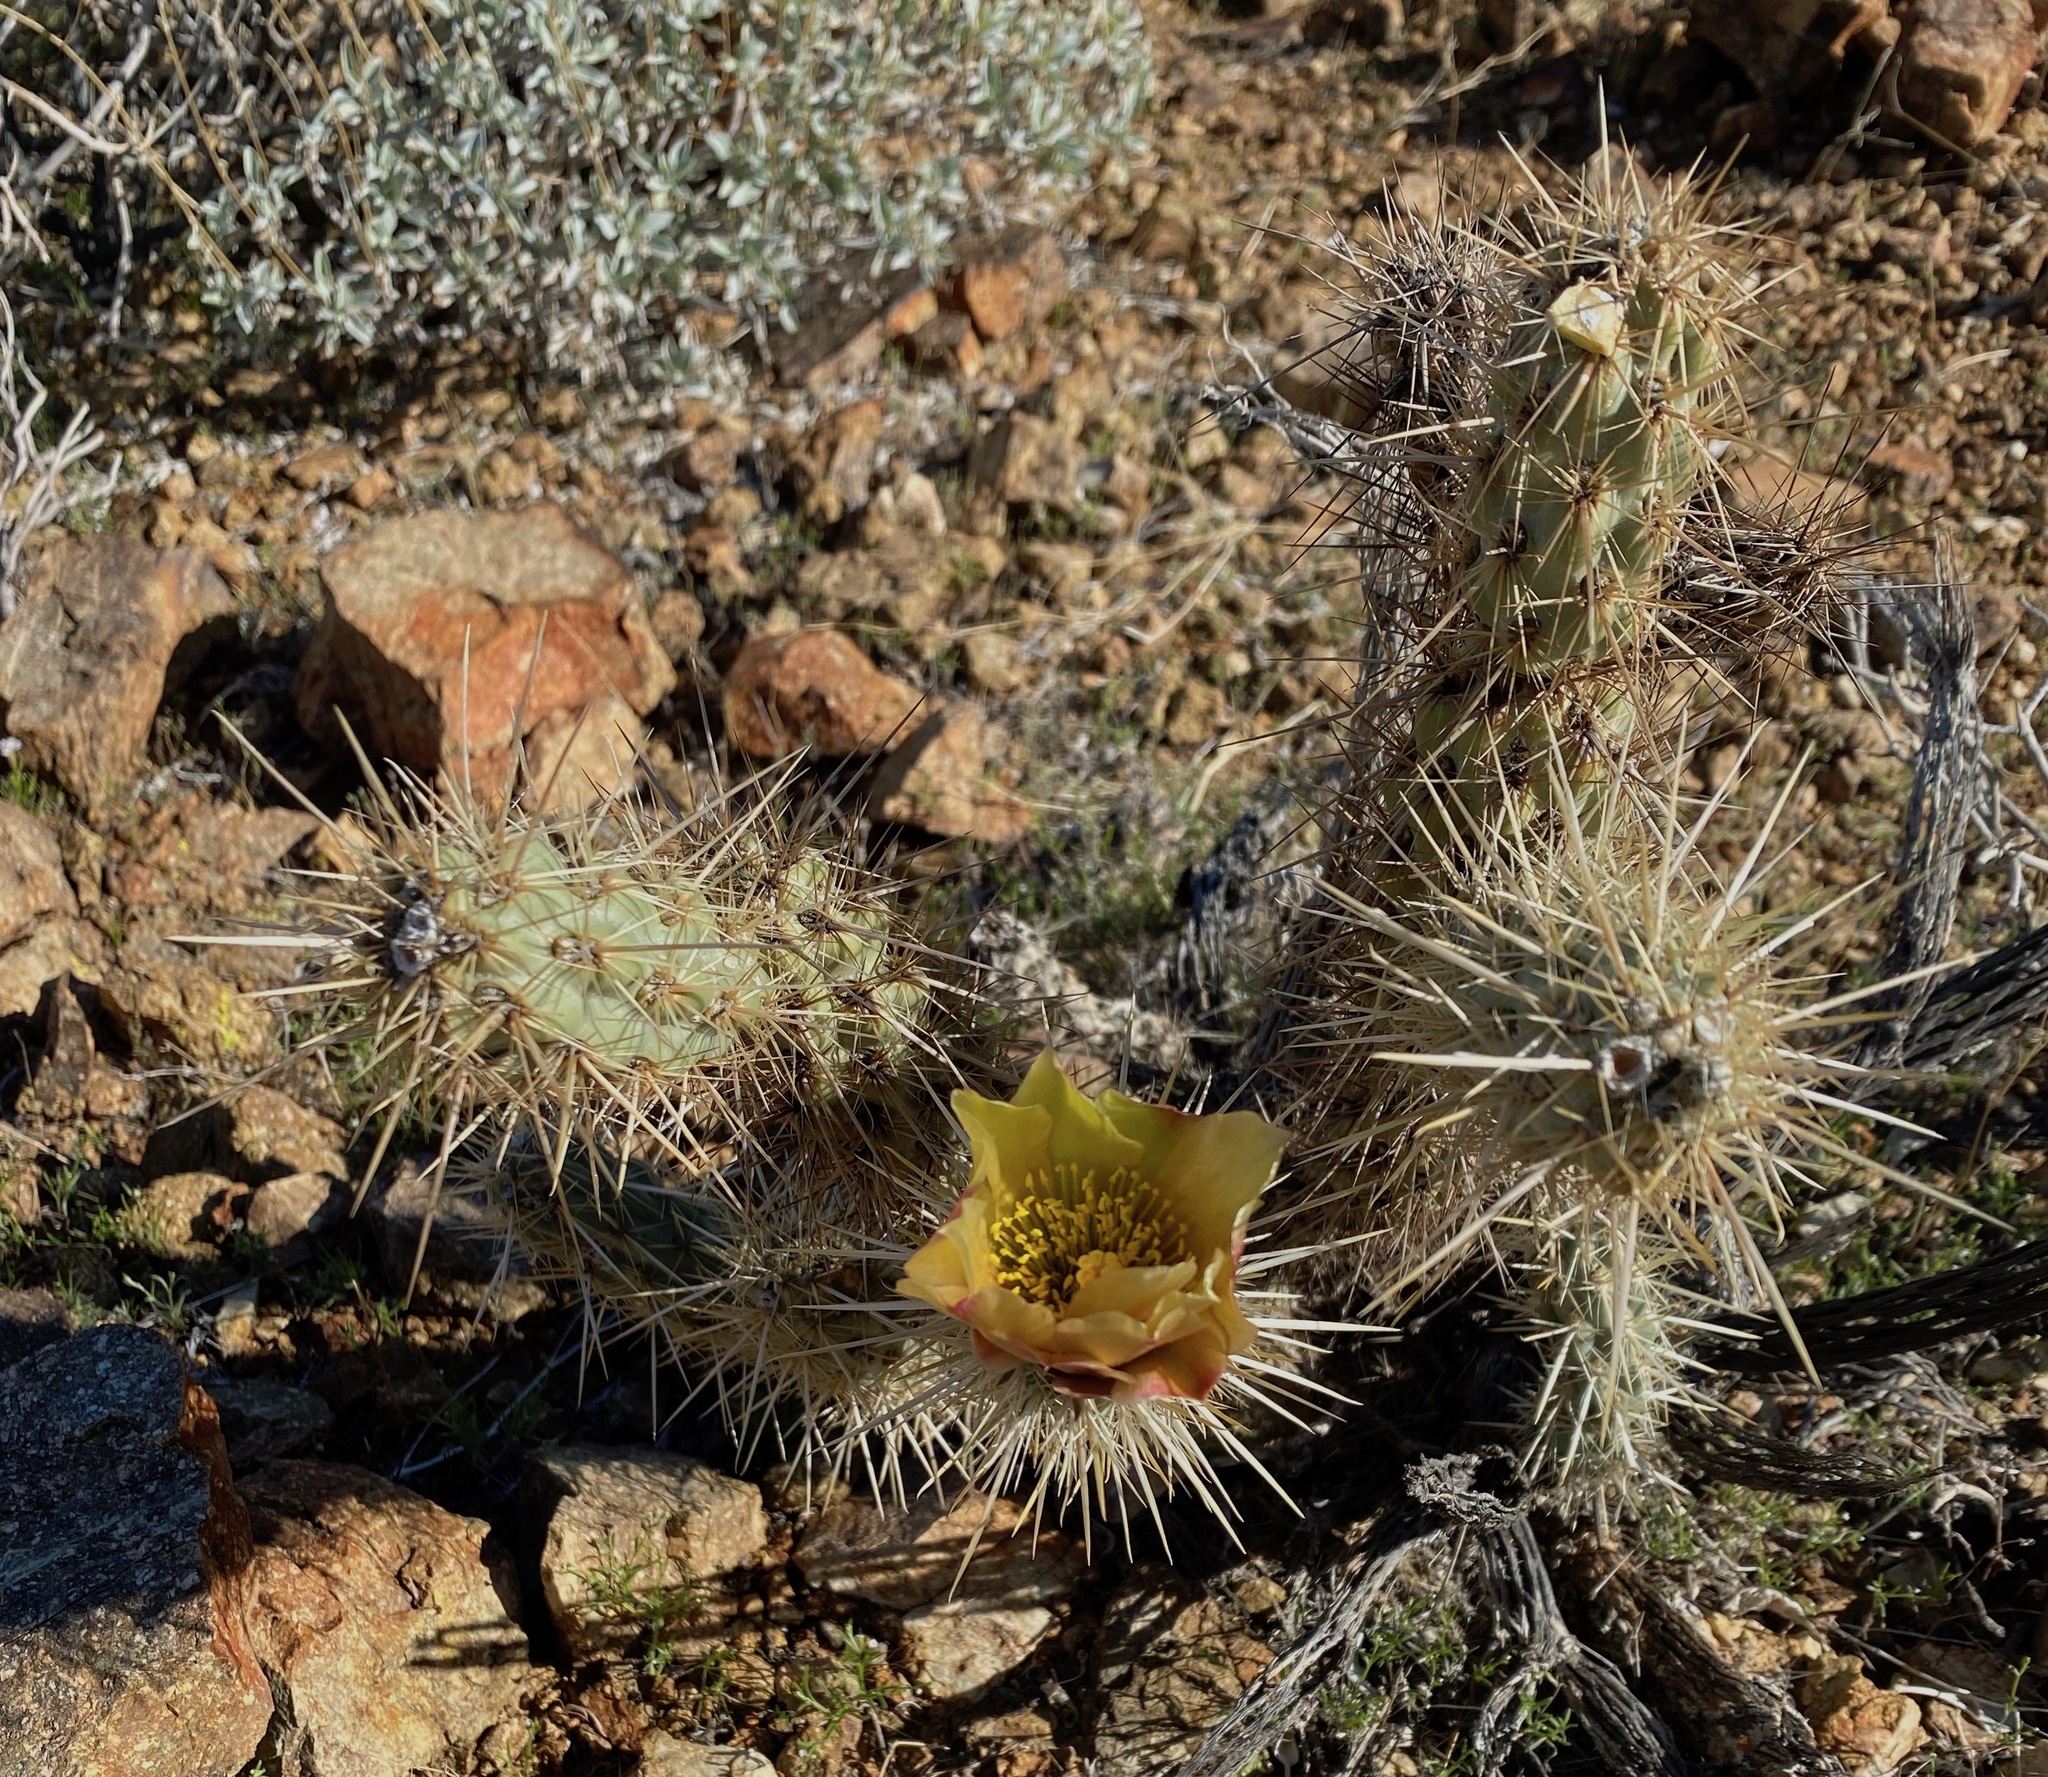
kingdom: Plantae
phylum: Tracheophyta
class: Magnoliopsida
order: Caryophyllales
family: Cactaceae
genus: Cylindropuntia
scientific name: Cylindropuntia echinocarpa
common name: Ground cholla
